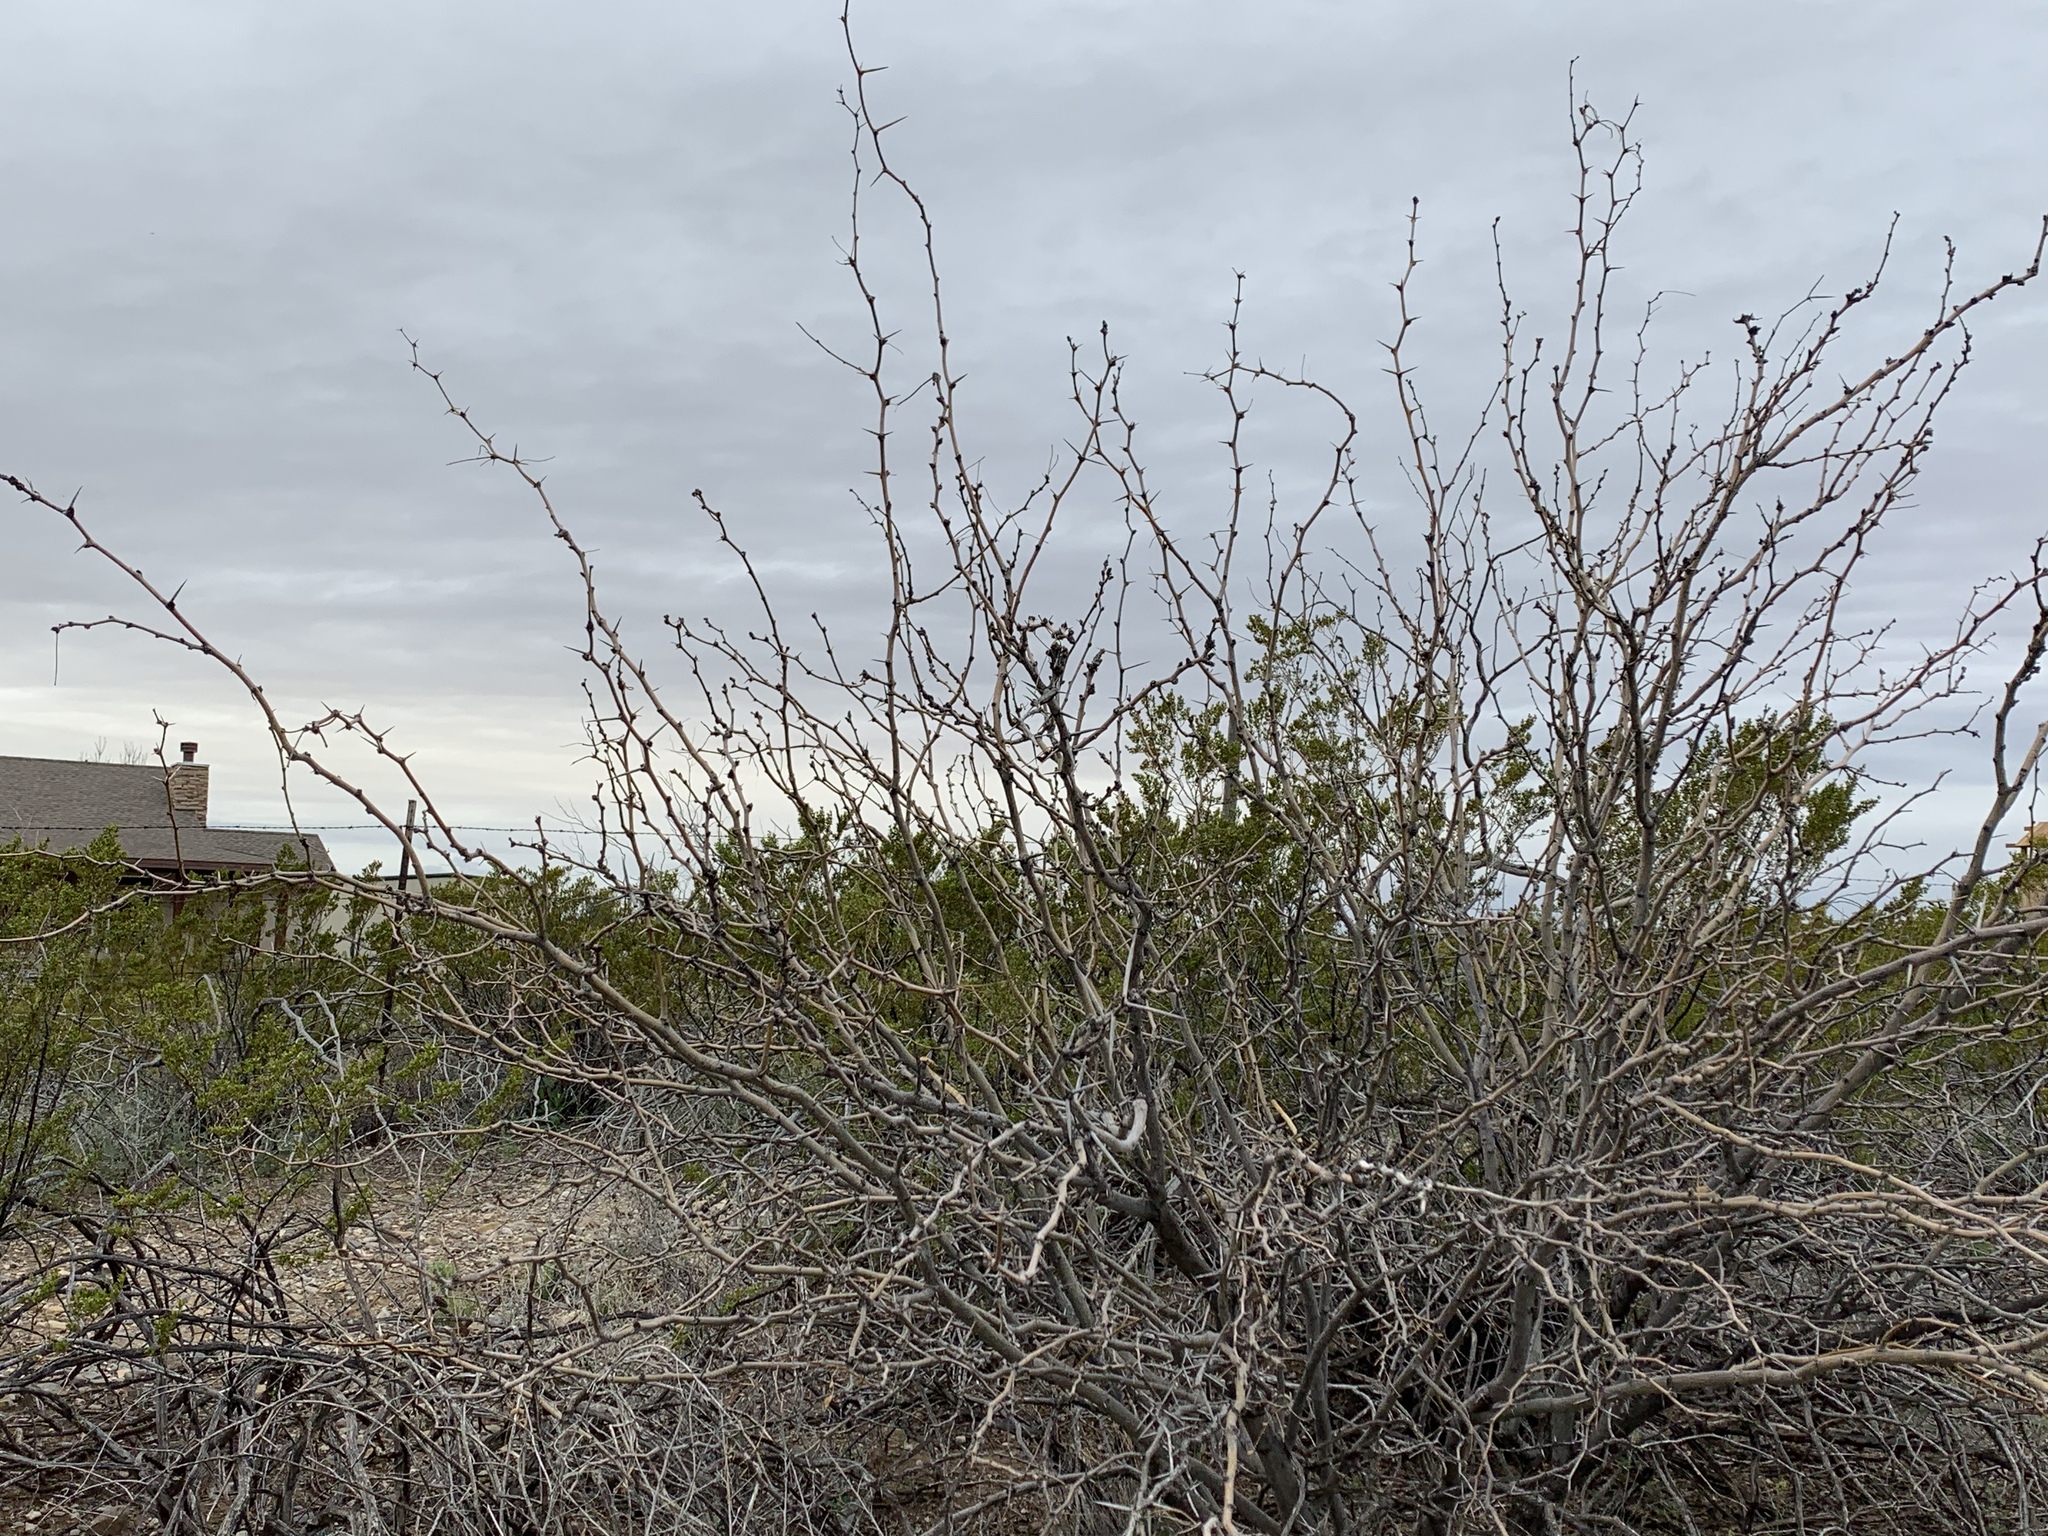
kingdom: Plantae
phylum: Tracheophyta
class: Magnoliopsida
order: Fabales
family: Fabaceae
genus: Prosopis
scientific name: Prosopis glandulosa
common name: Honey mesquite
